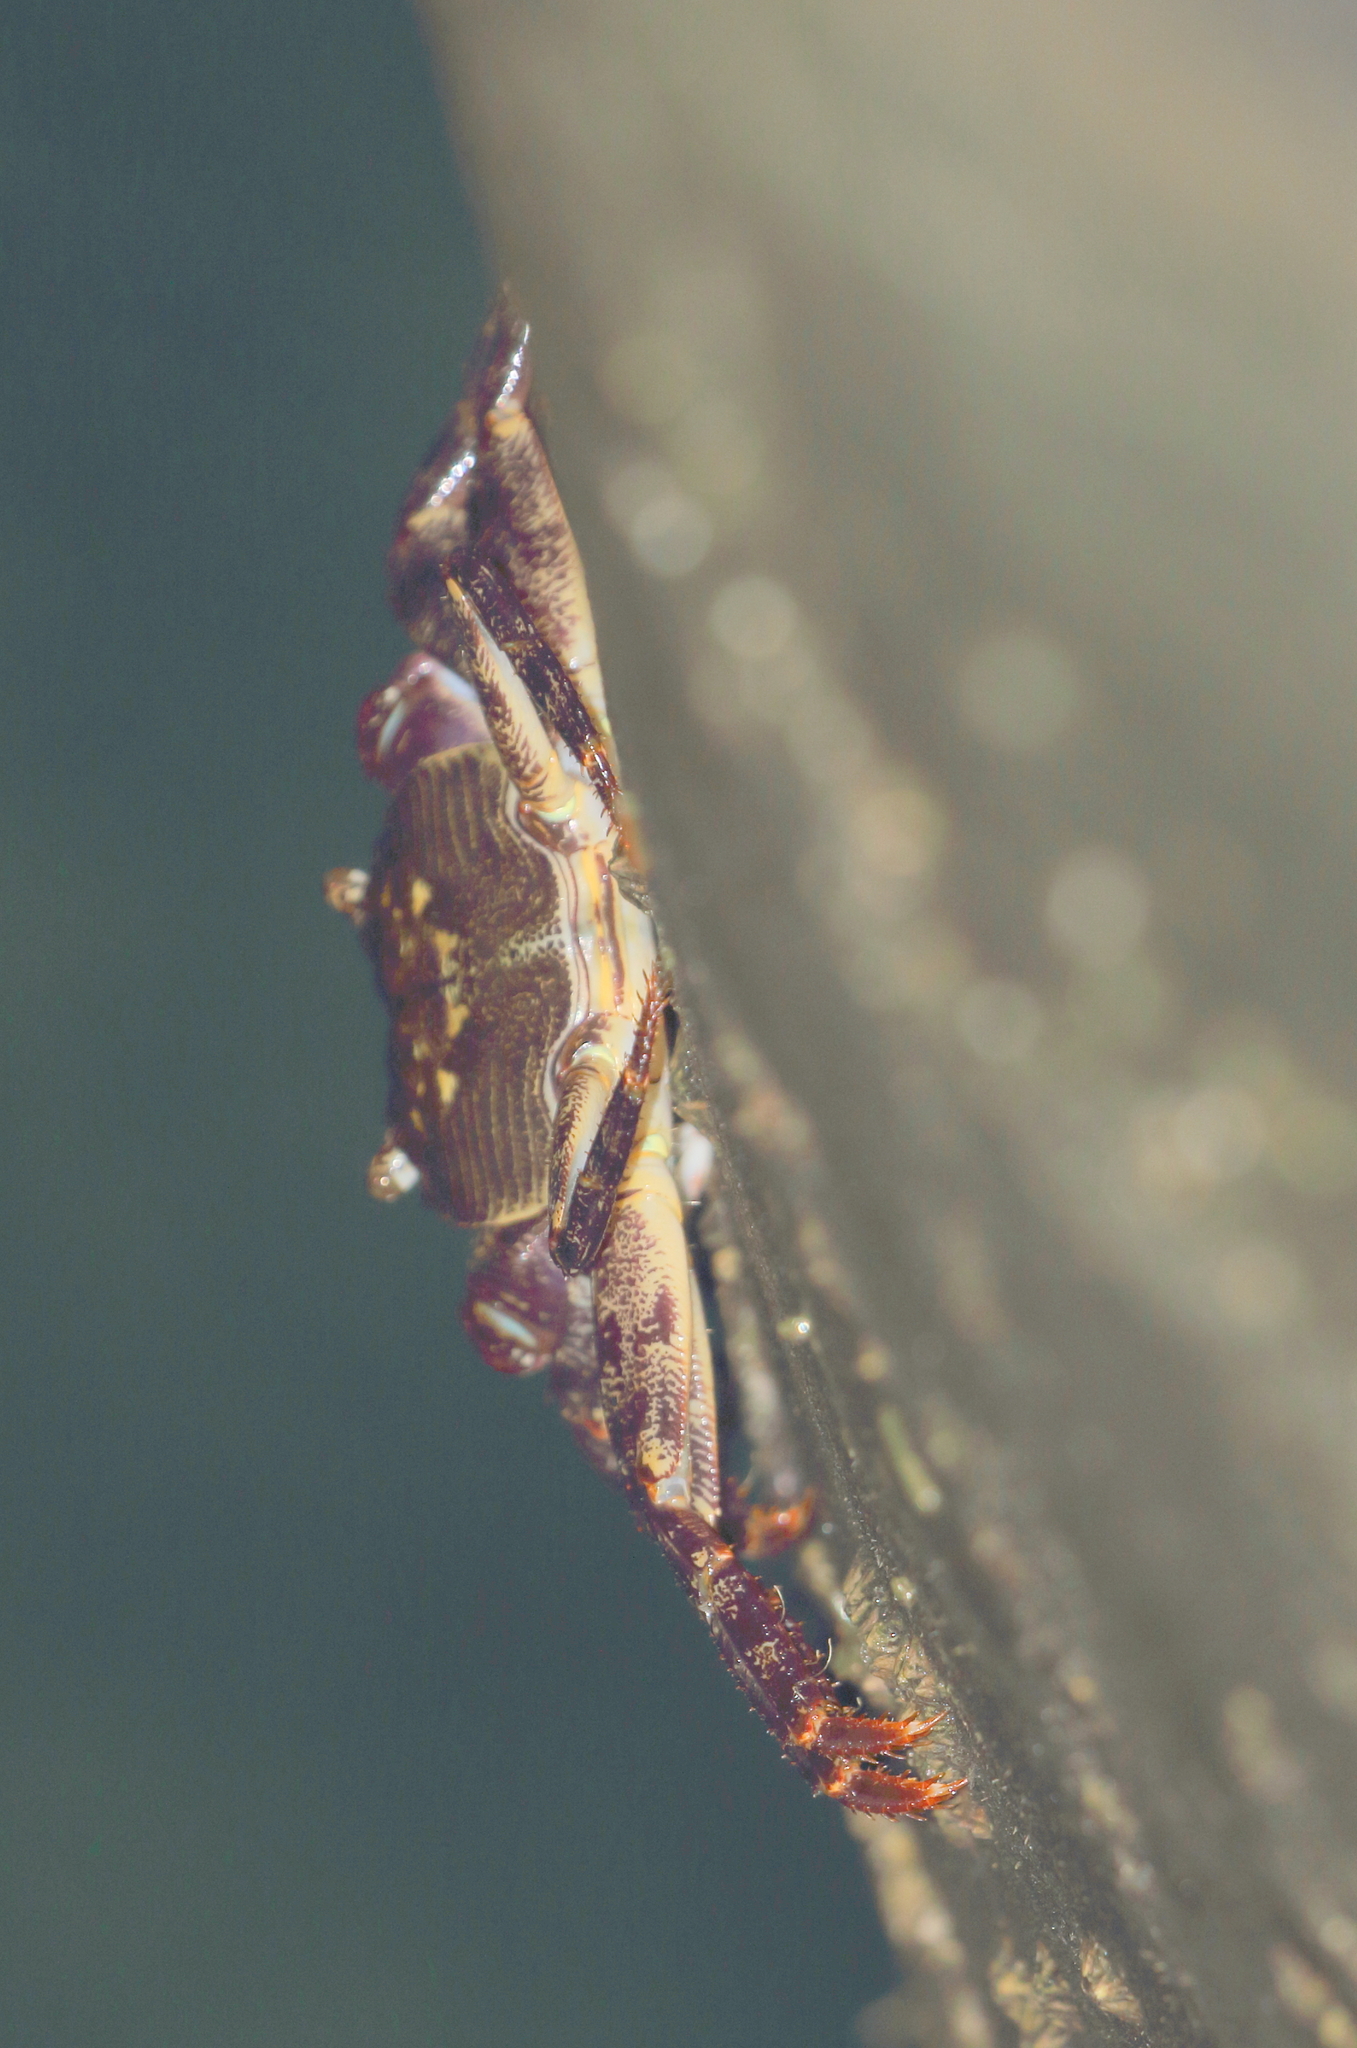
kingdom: Animalia
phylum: Arthropoda
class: Malacostraca
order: Decapoda
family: Grapsidae
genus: Leptograpsus
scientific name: Leptograpsus variegatus
